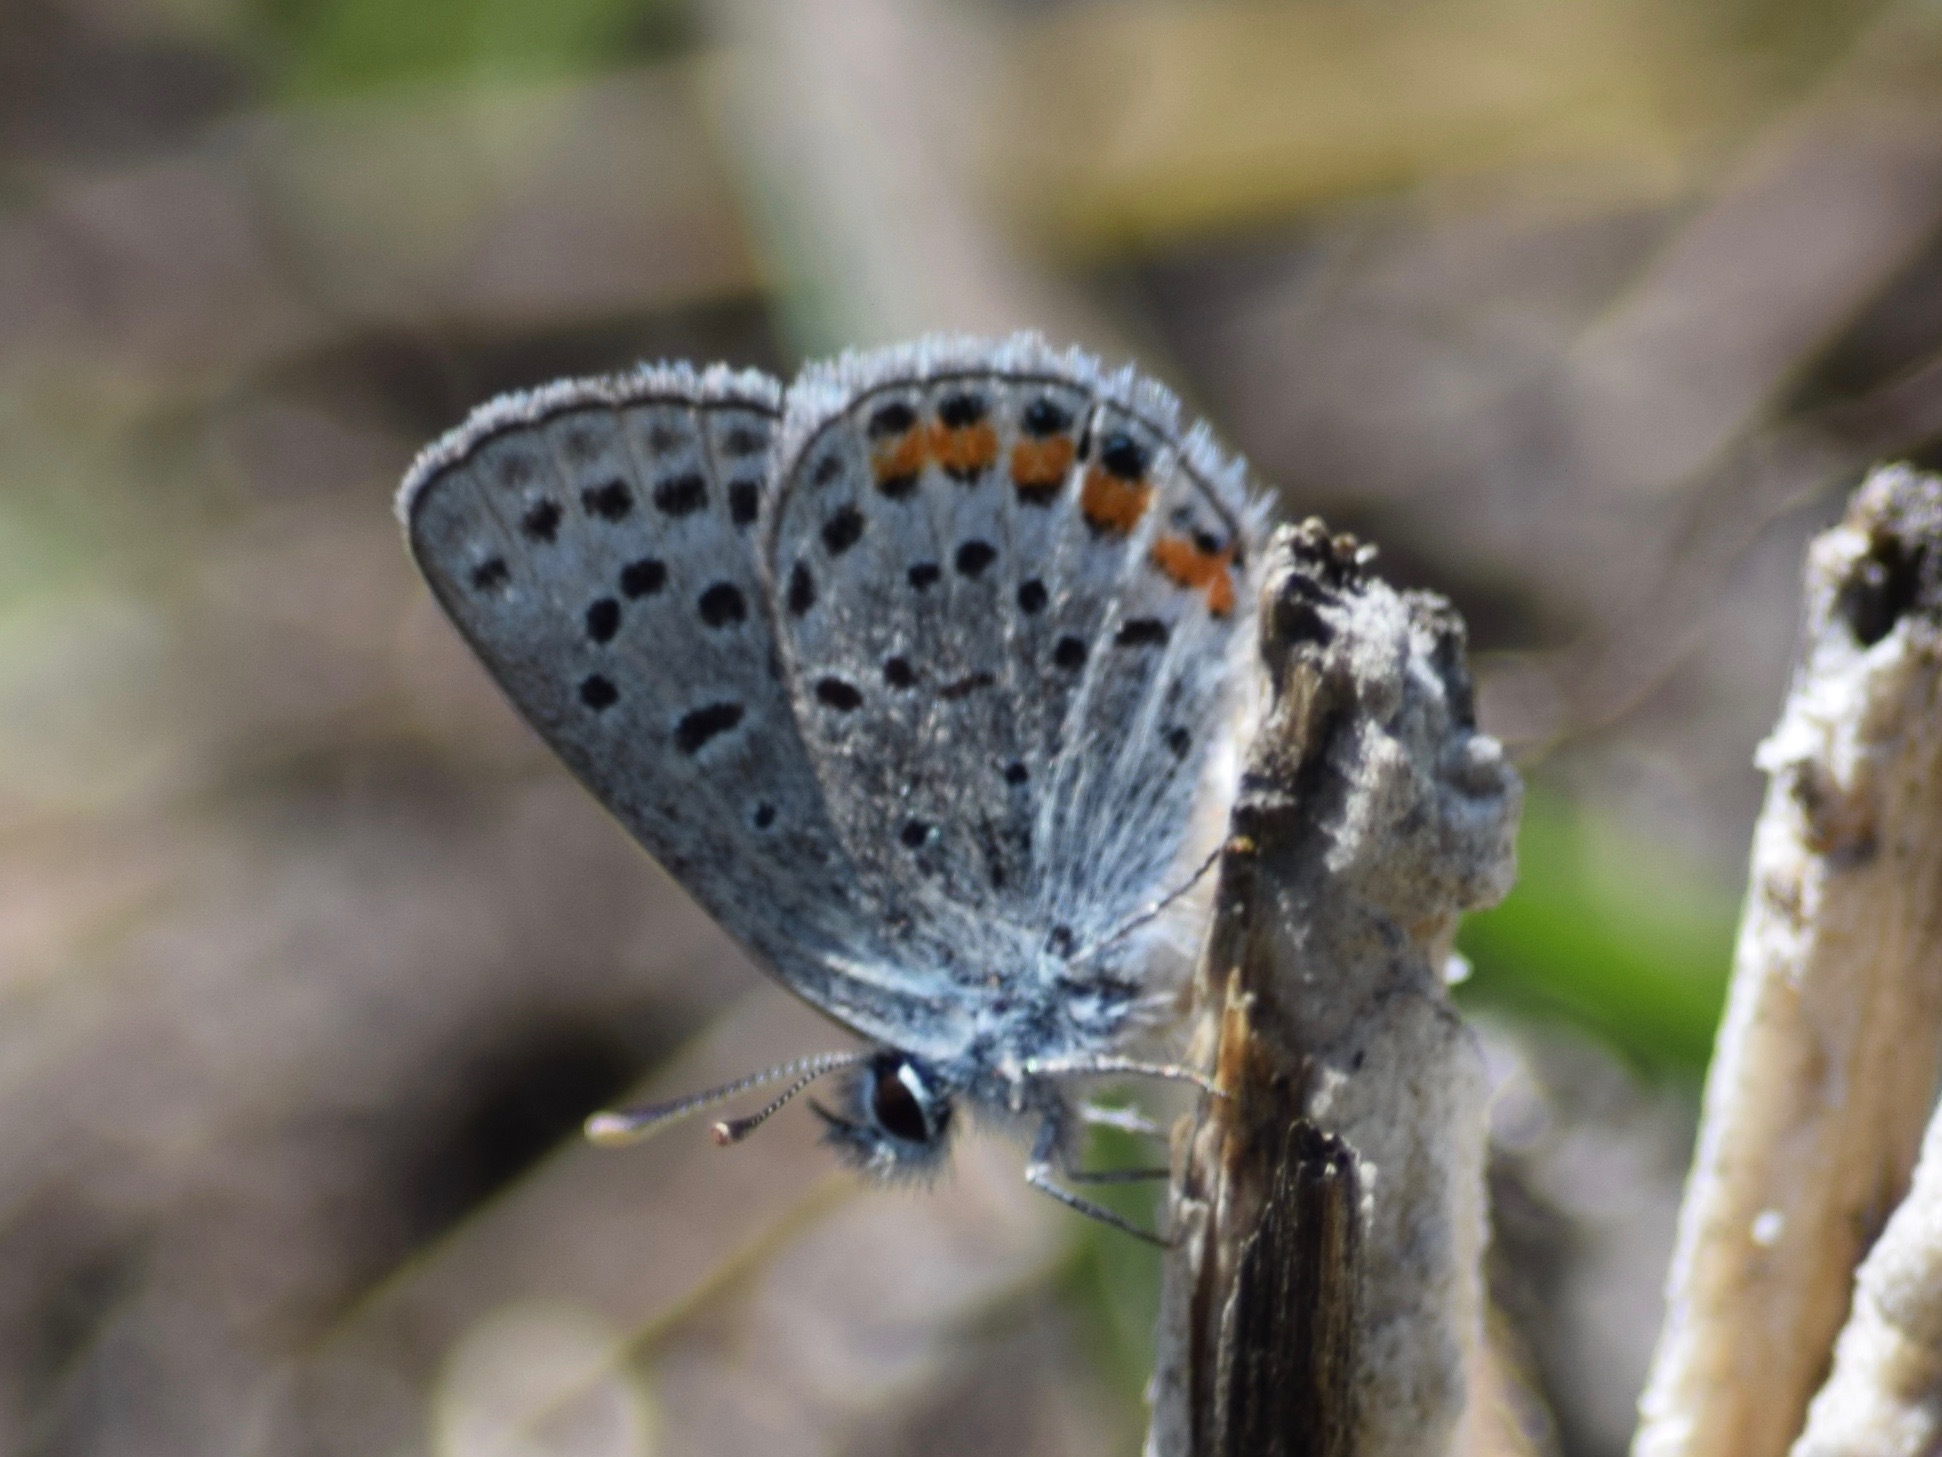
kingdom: Animalia
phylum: Arthropoda
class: Insecta
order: Lepidoptera
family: Lycaenidae
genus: Icaricia
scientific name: Icaricia acmon
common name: Acmon blue
